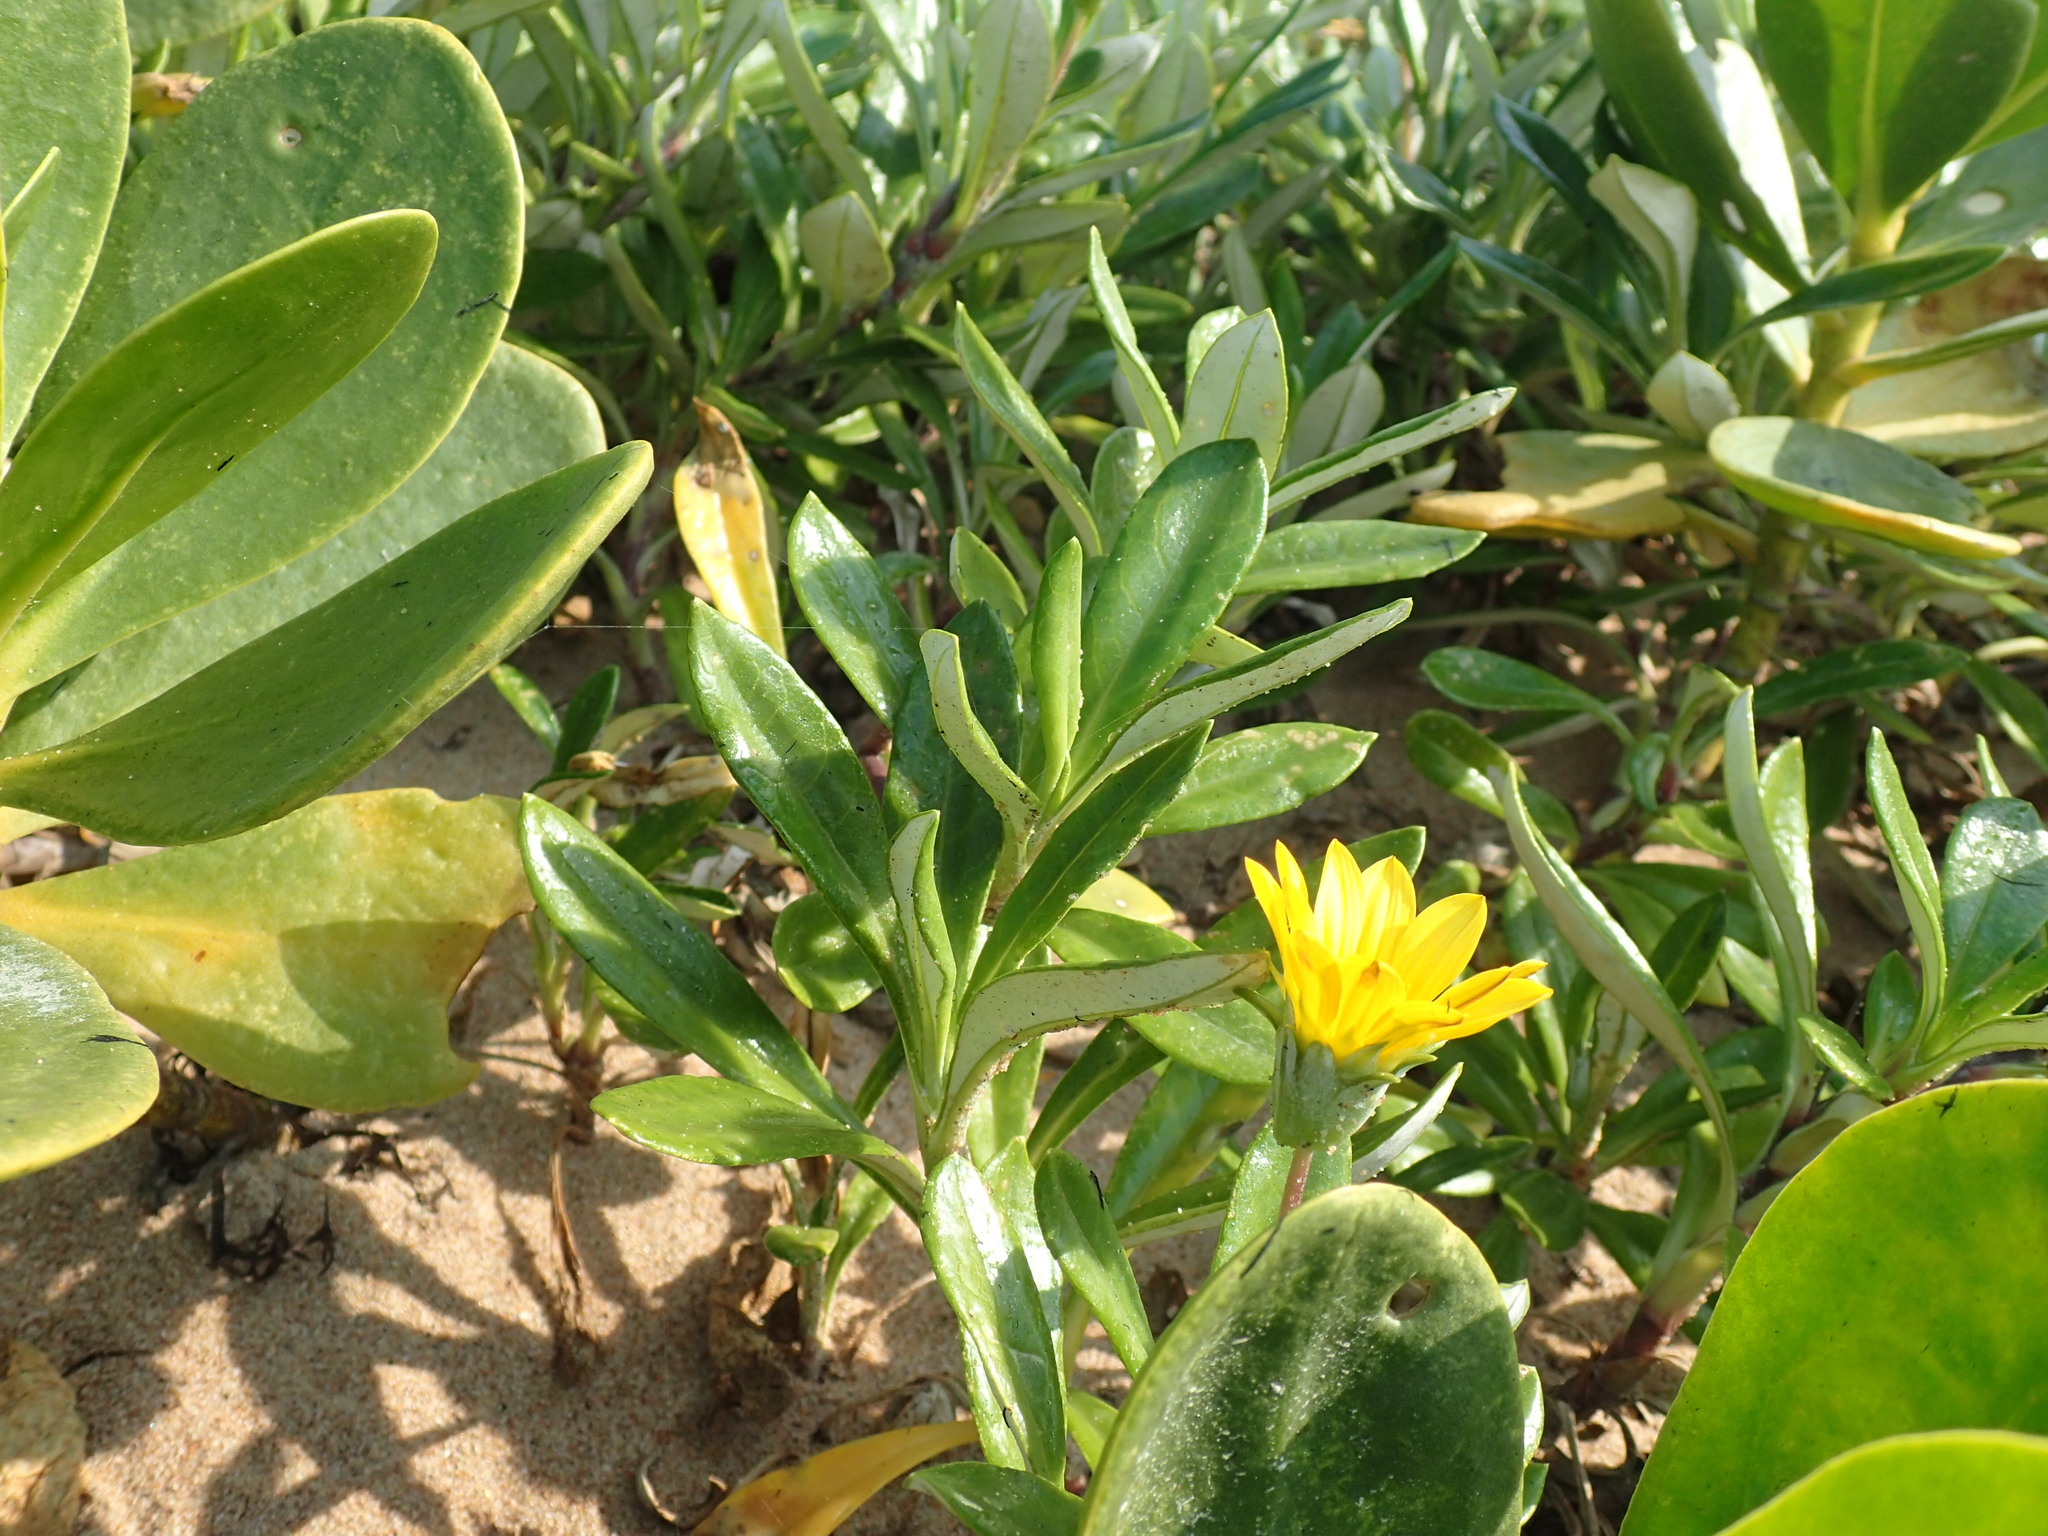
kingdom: Plantae
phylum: Tracheophyta
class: Magnoliopsida
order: Asterales
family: Asteraceae
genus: Gazania
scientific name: Gazania rigens
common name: Treasureflower
